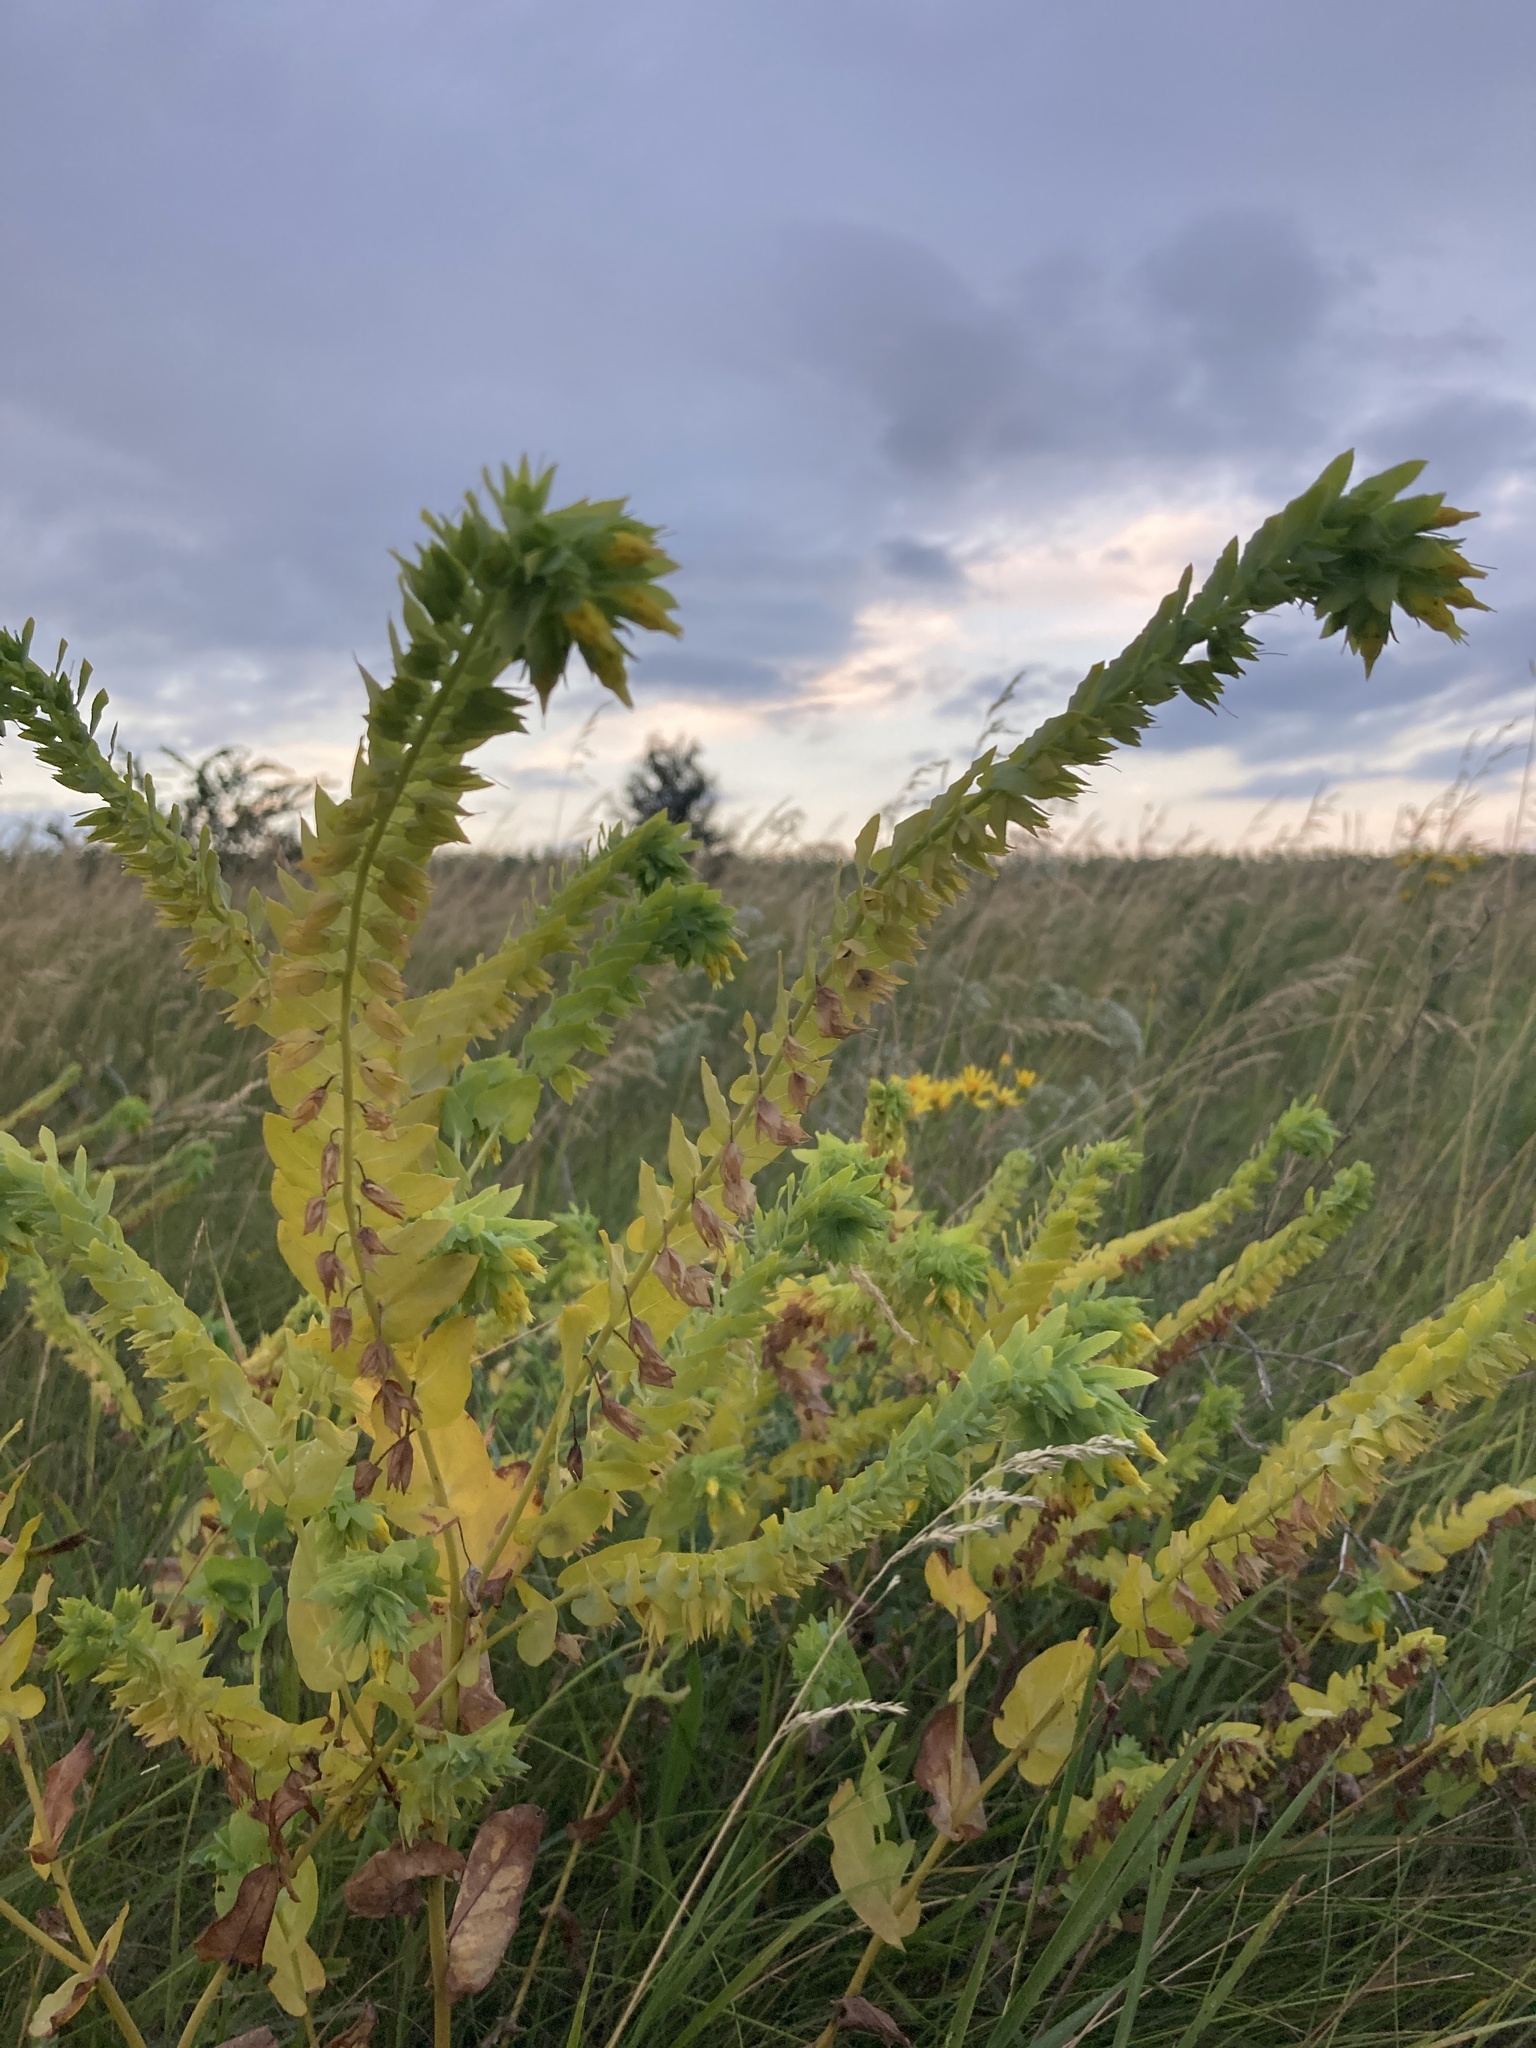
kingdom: Plantae
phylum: Tracheophyta
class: Magnoliopsida
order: Boraginales
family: Boraginaceae
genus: Cerinthe
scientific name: Cerinthe minor
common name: Lesser honeywort
